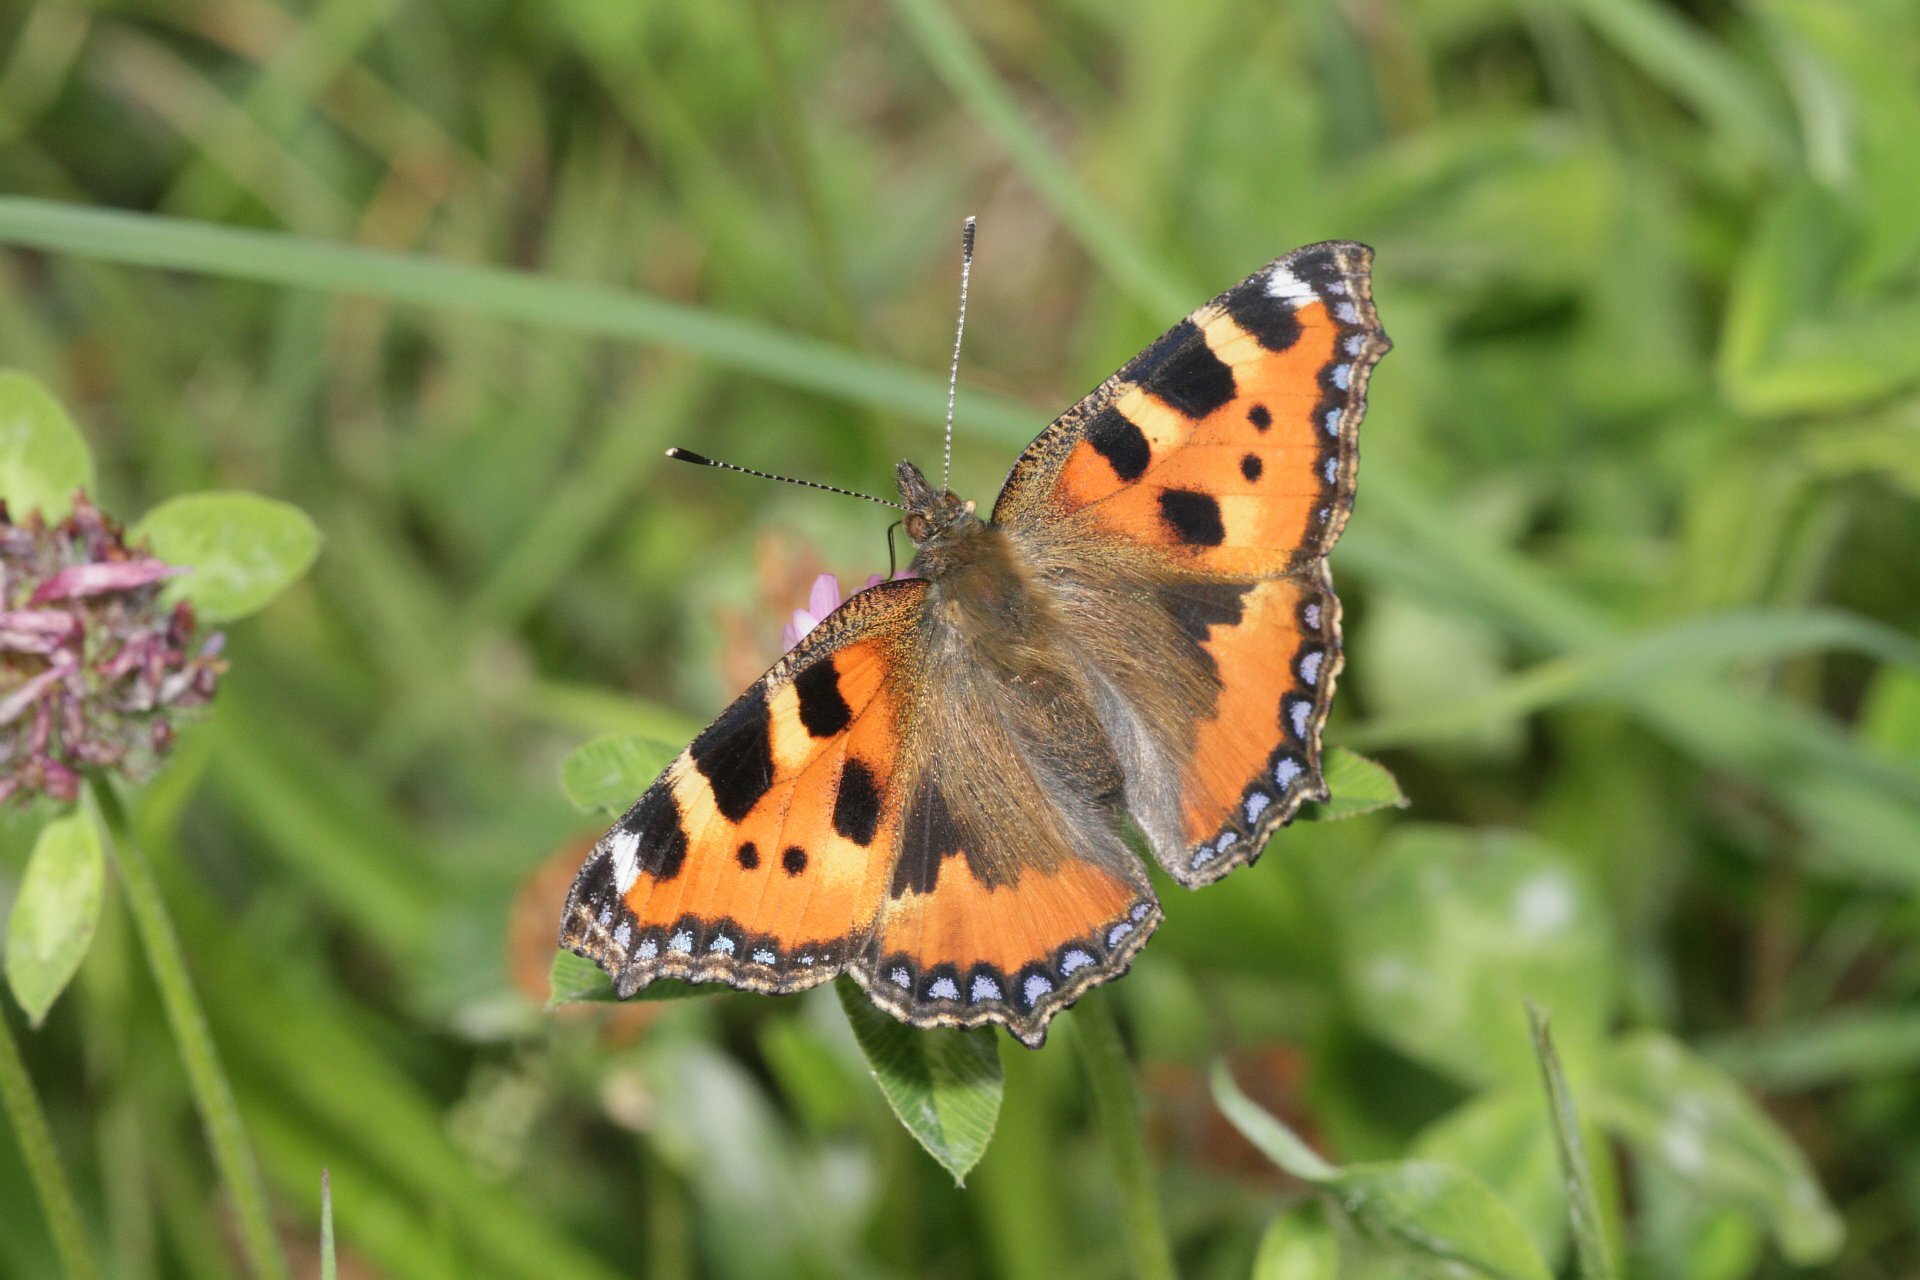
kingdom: Animalia
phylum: Arthropoda
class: Insecta
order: Lepidoptera
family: Nymphalidae
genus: Aglais
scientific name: Aglais urticae
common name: Small tortoiseshell
